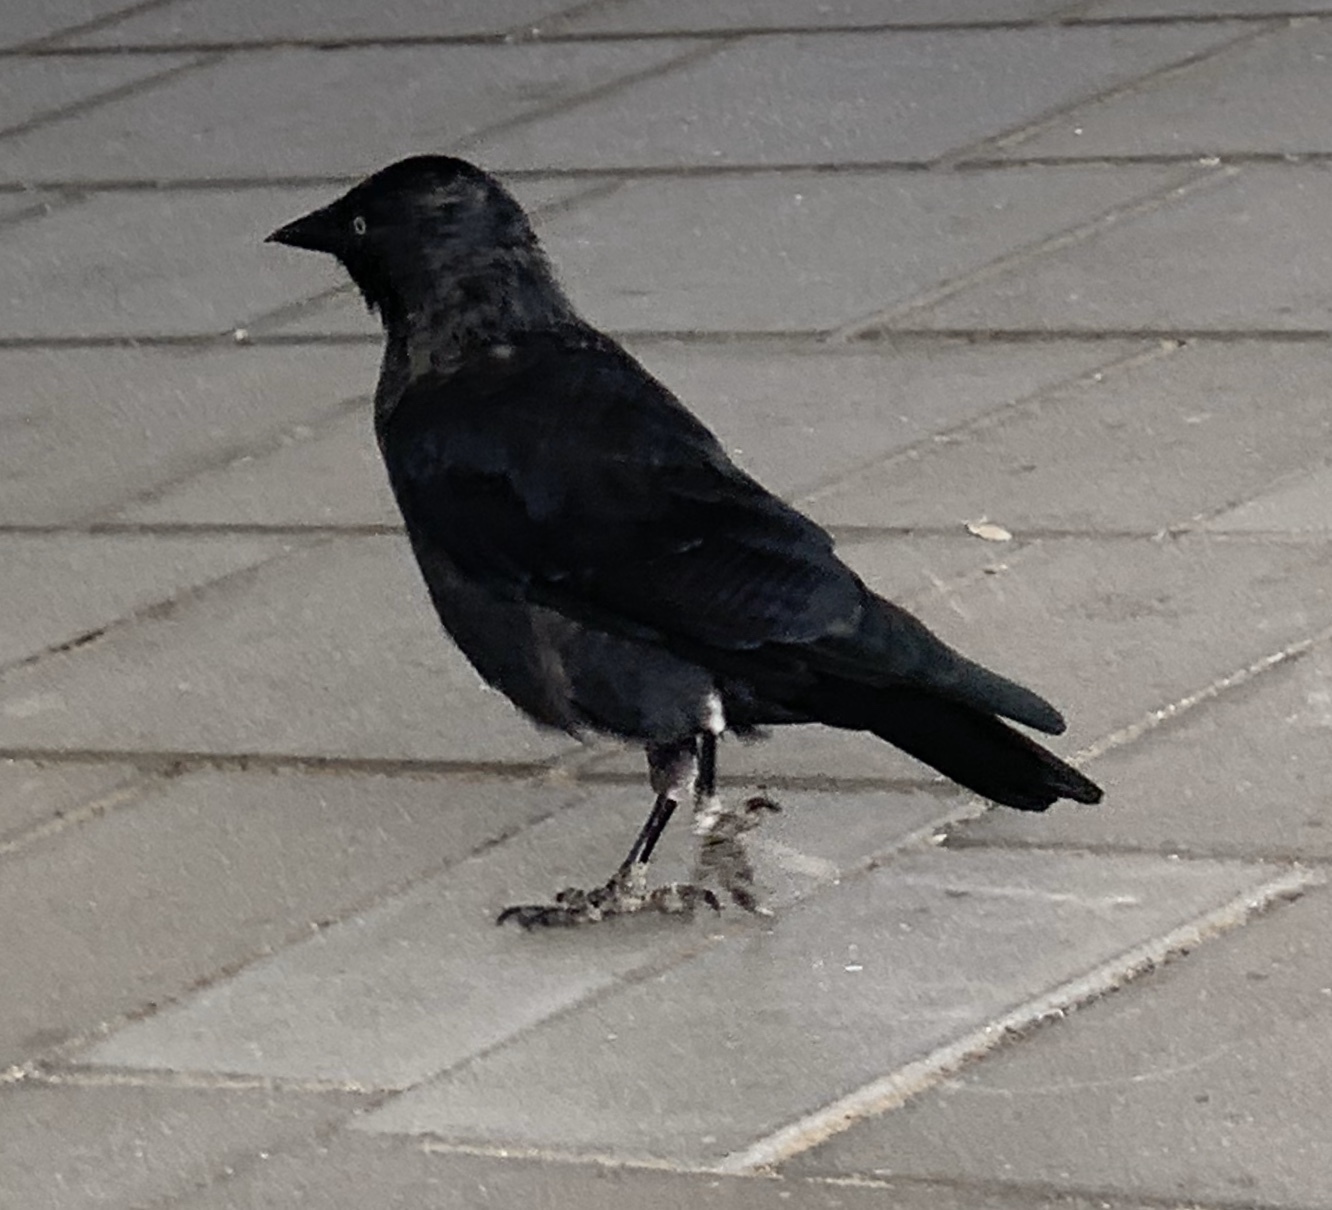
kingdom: Animalia
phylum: Chordata
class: Aves
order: Passeriformes
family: Corvidae
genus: Coloeus
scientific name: Coloeus monedula
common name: Western jackdaw
